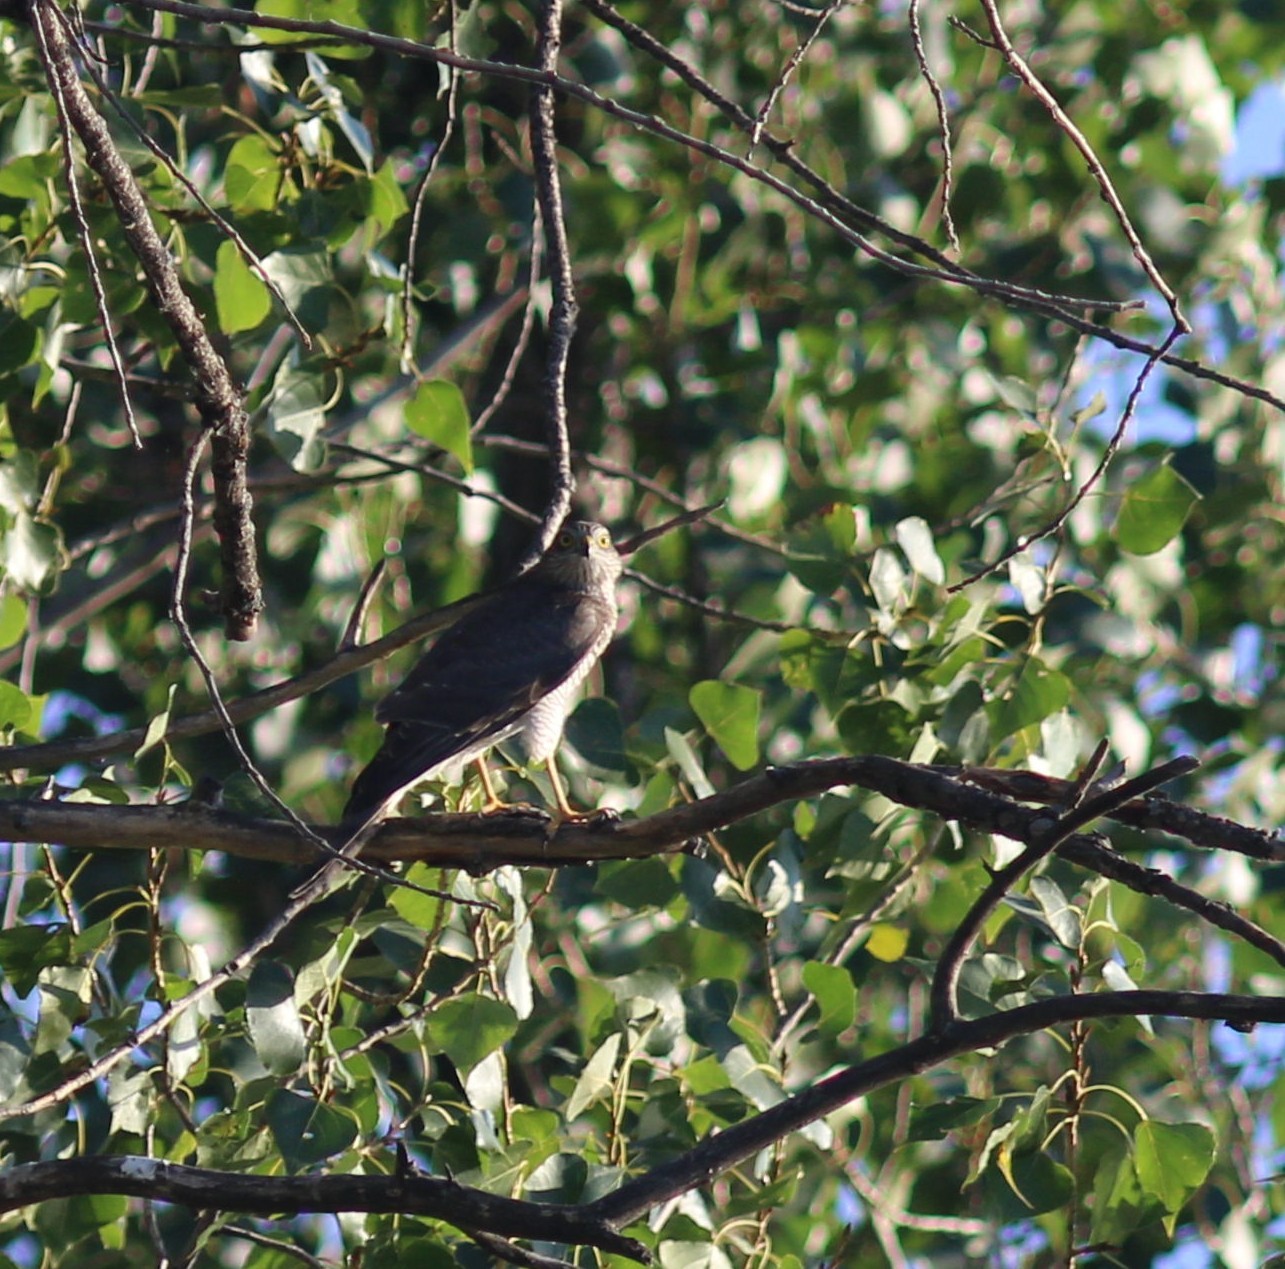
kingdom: Animalia
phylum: Chordata
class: Aves
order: Accipitriformes
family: Accipitridae
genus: Accipiter
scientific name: Accipiter nisus
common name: Eurasian sparrowhawk
